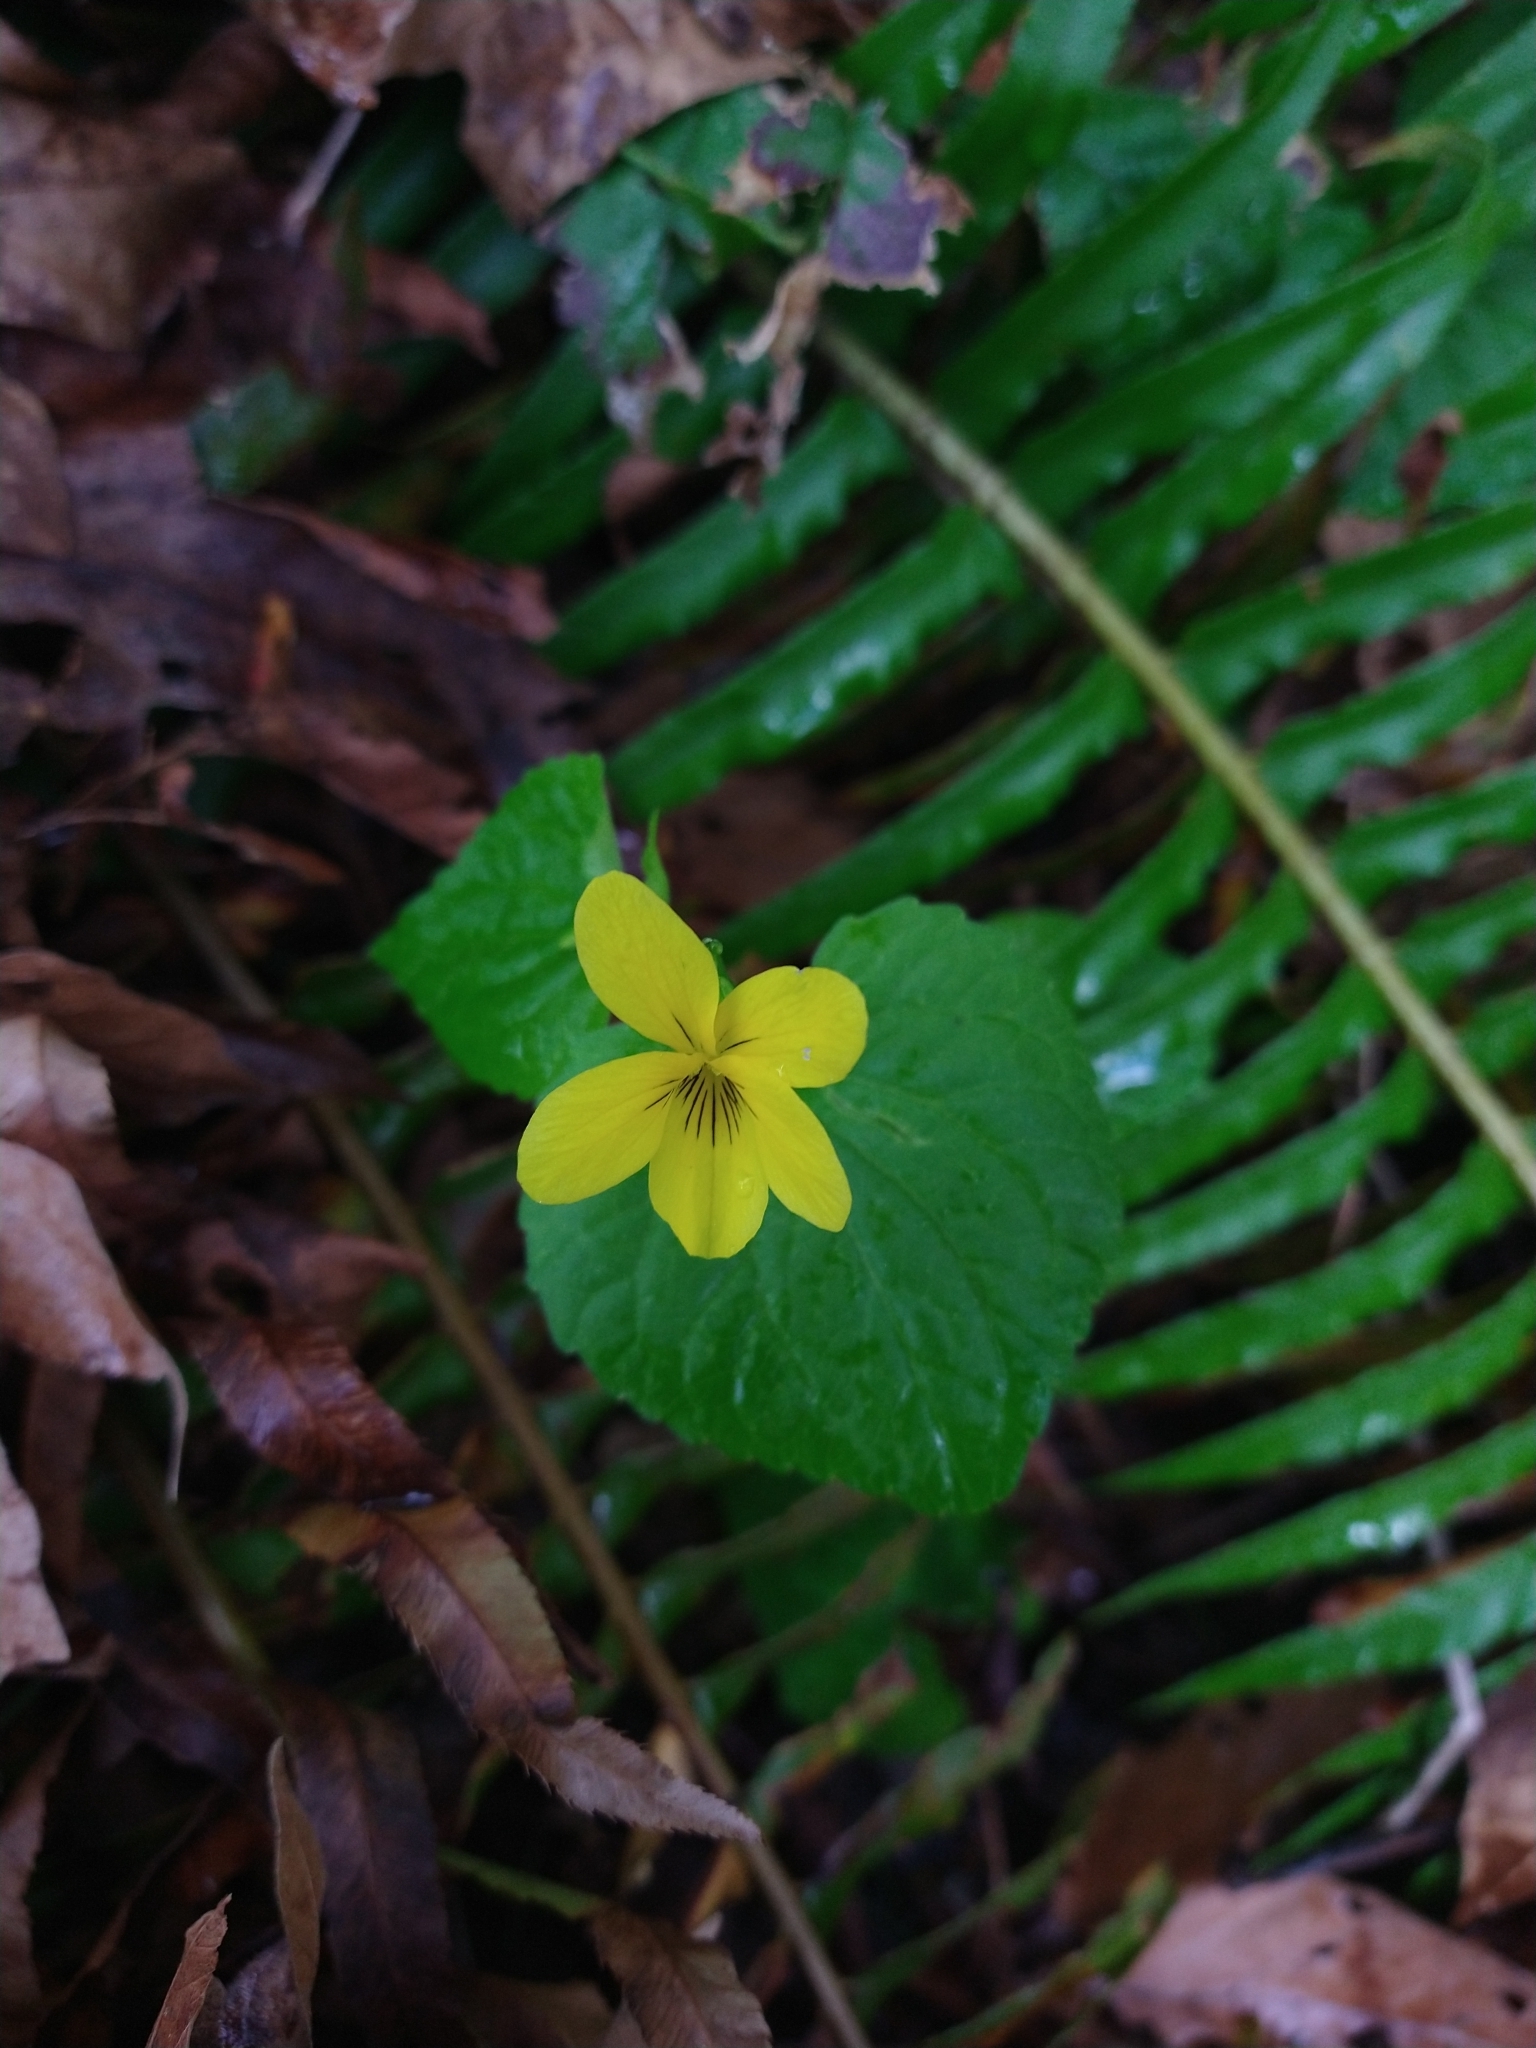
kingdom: Plantae
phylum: Tracheophyta
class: Magnoliopsida
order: Malpighiales
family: Violaceae
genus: Viola
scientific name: Viola glabella
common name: Stream violet
